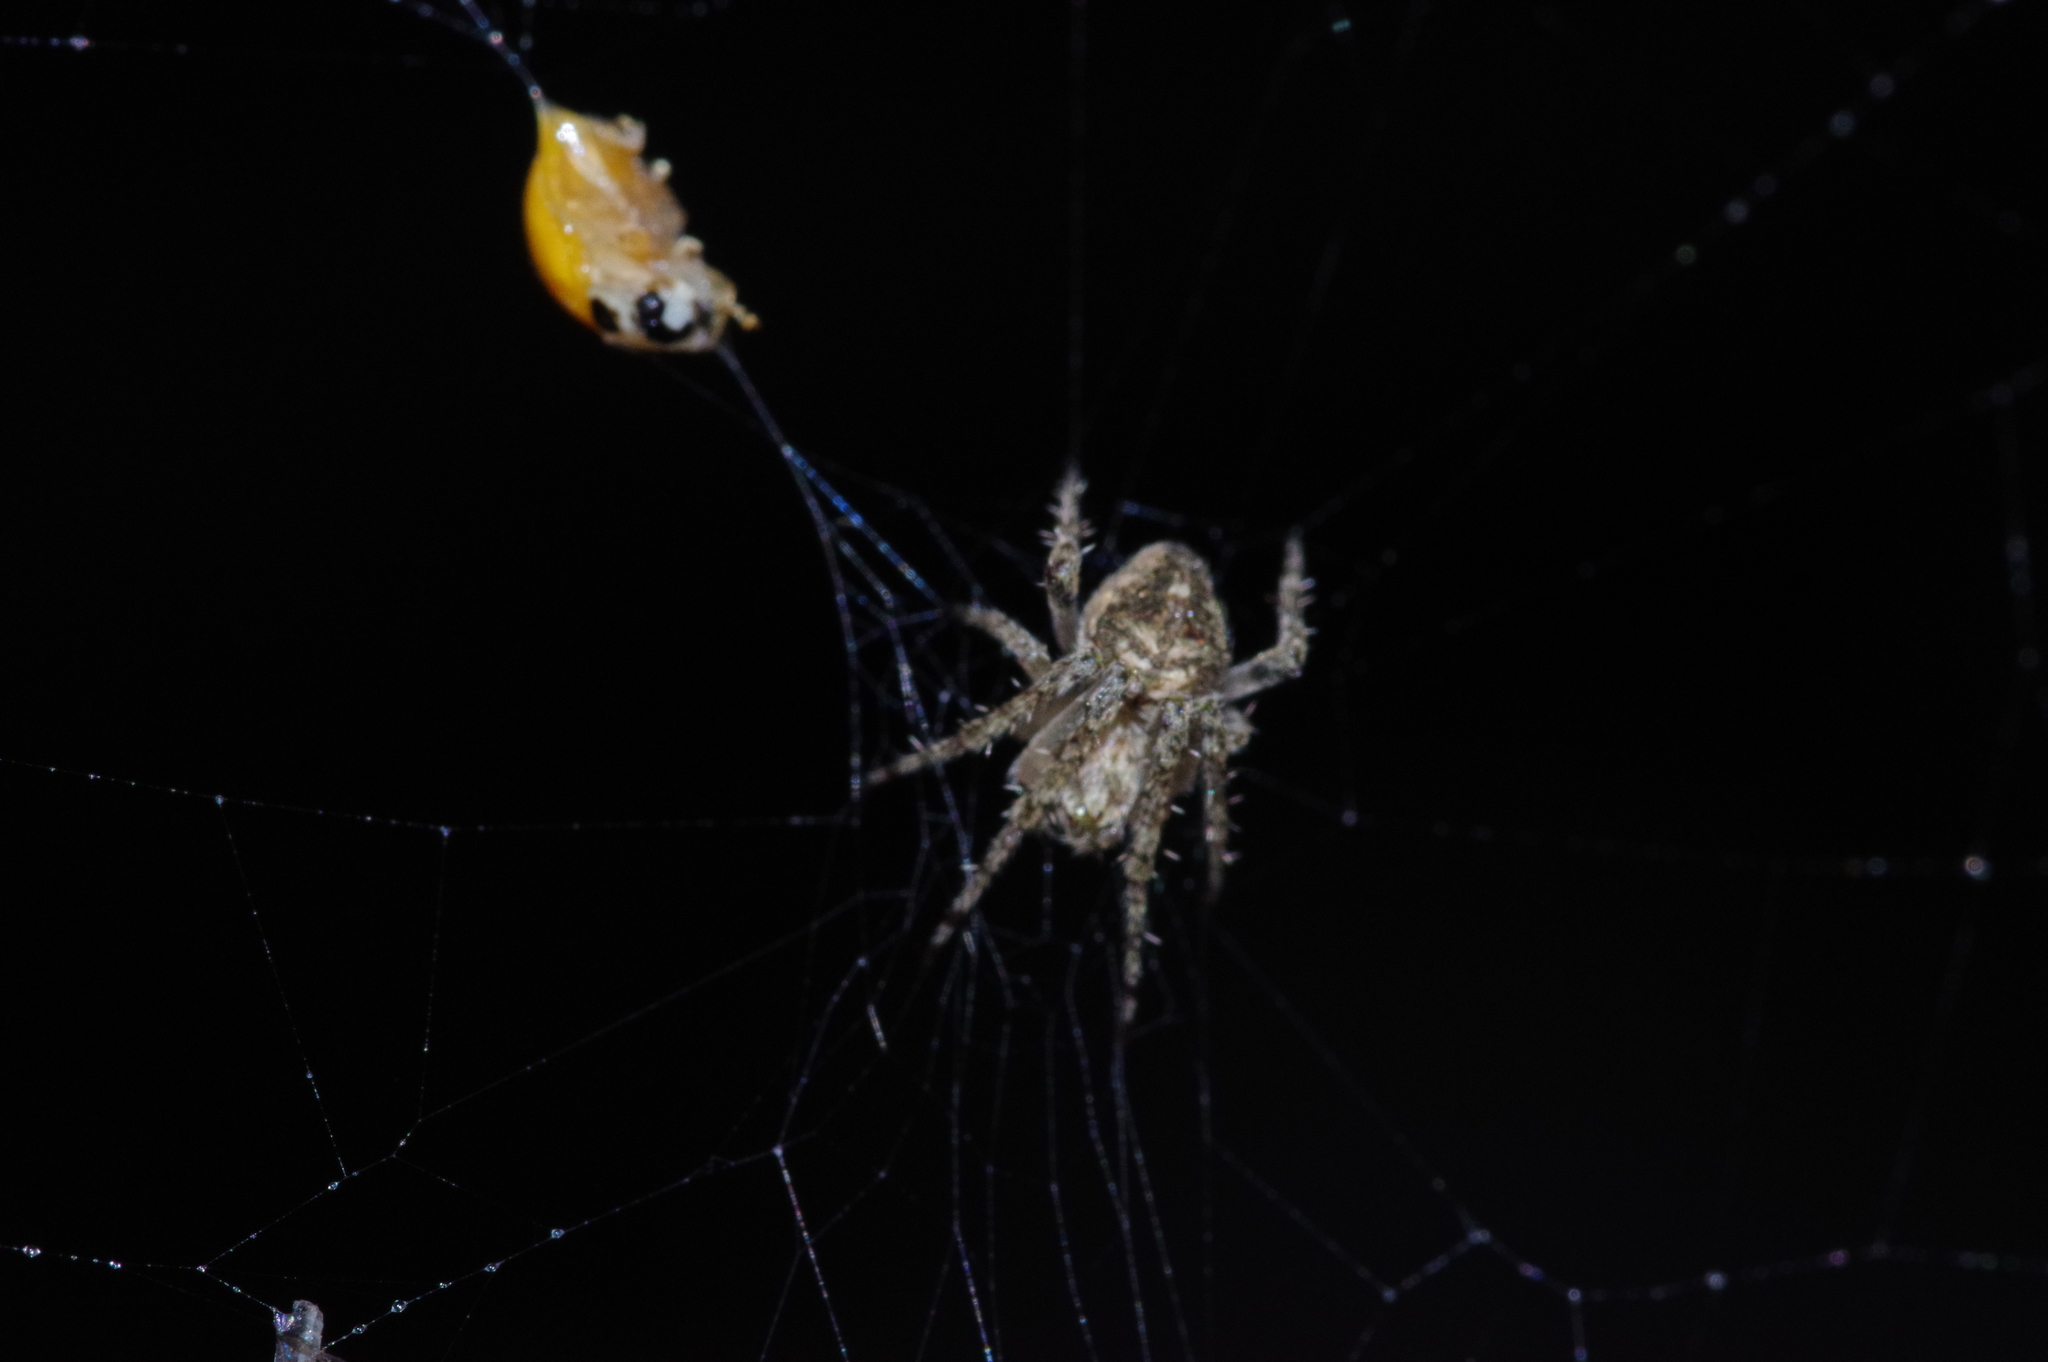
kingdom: Animalia
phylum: Arthropoda
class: Insecta
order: Coleoptera
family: Coccinellidae
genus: Illeis
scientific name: Illeis koebelei
